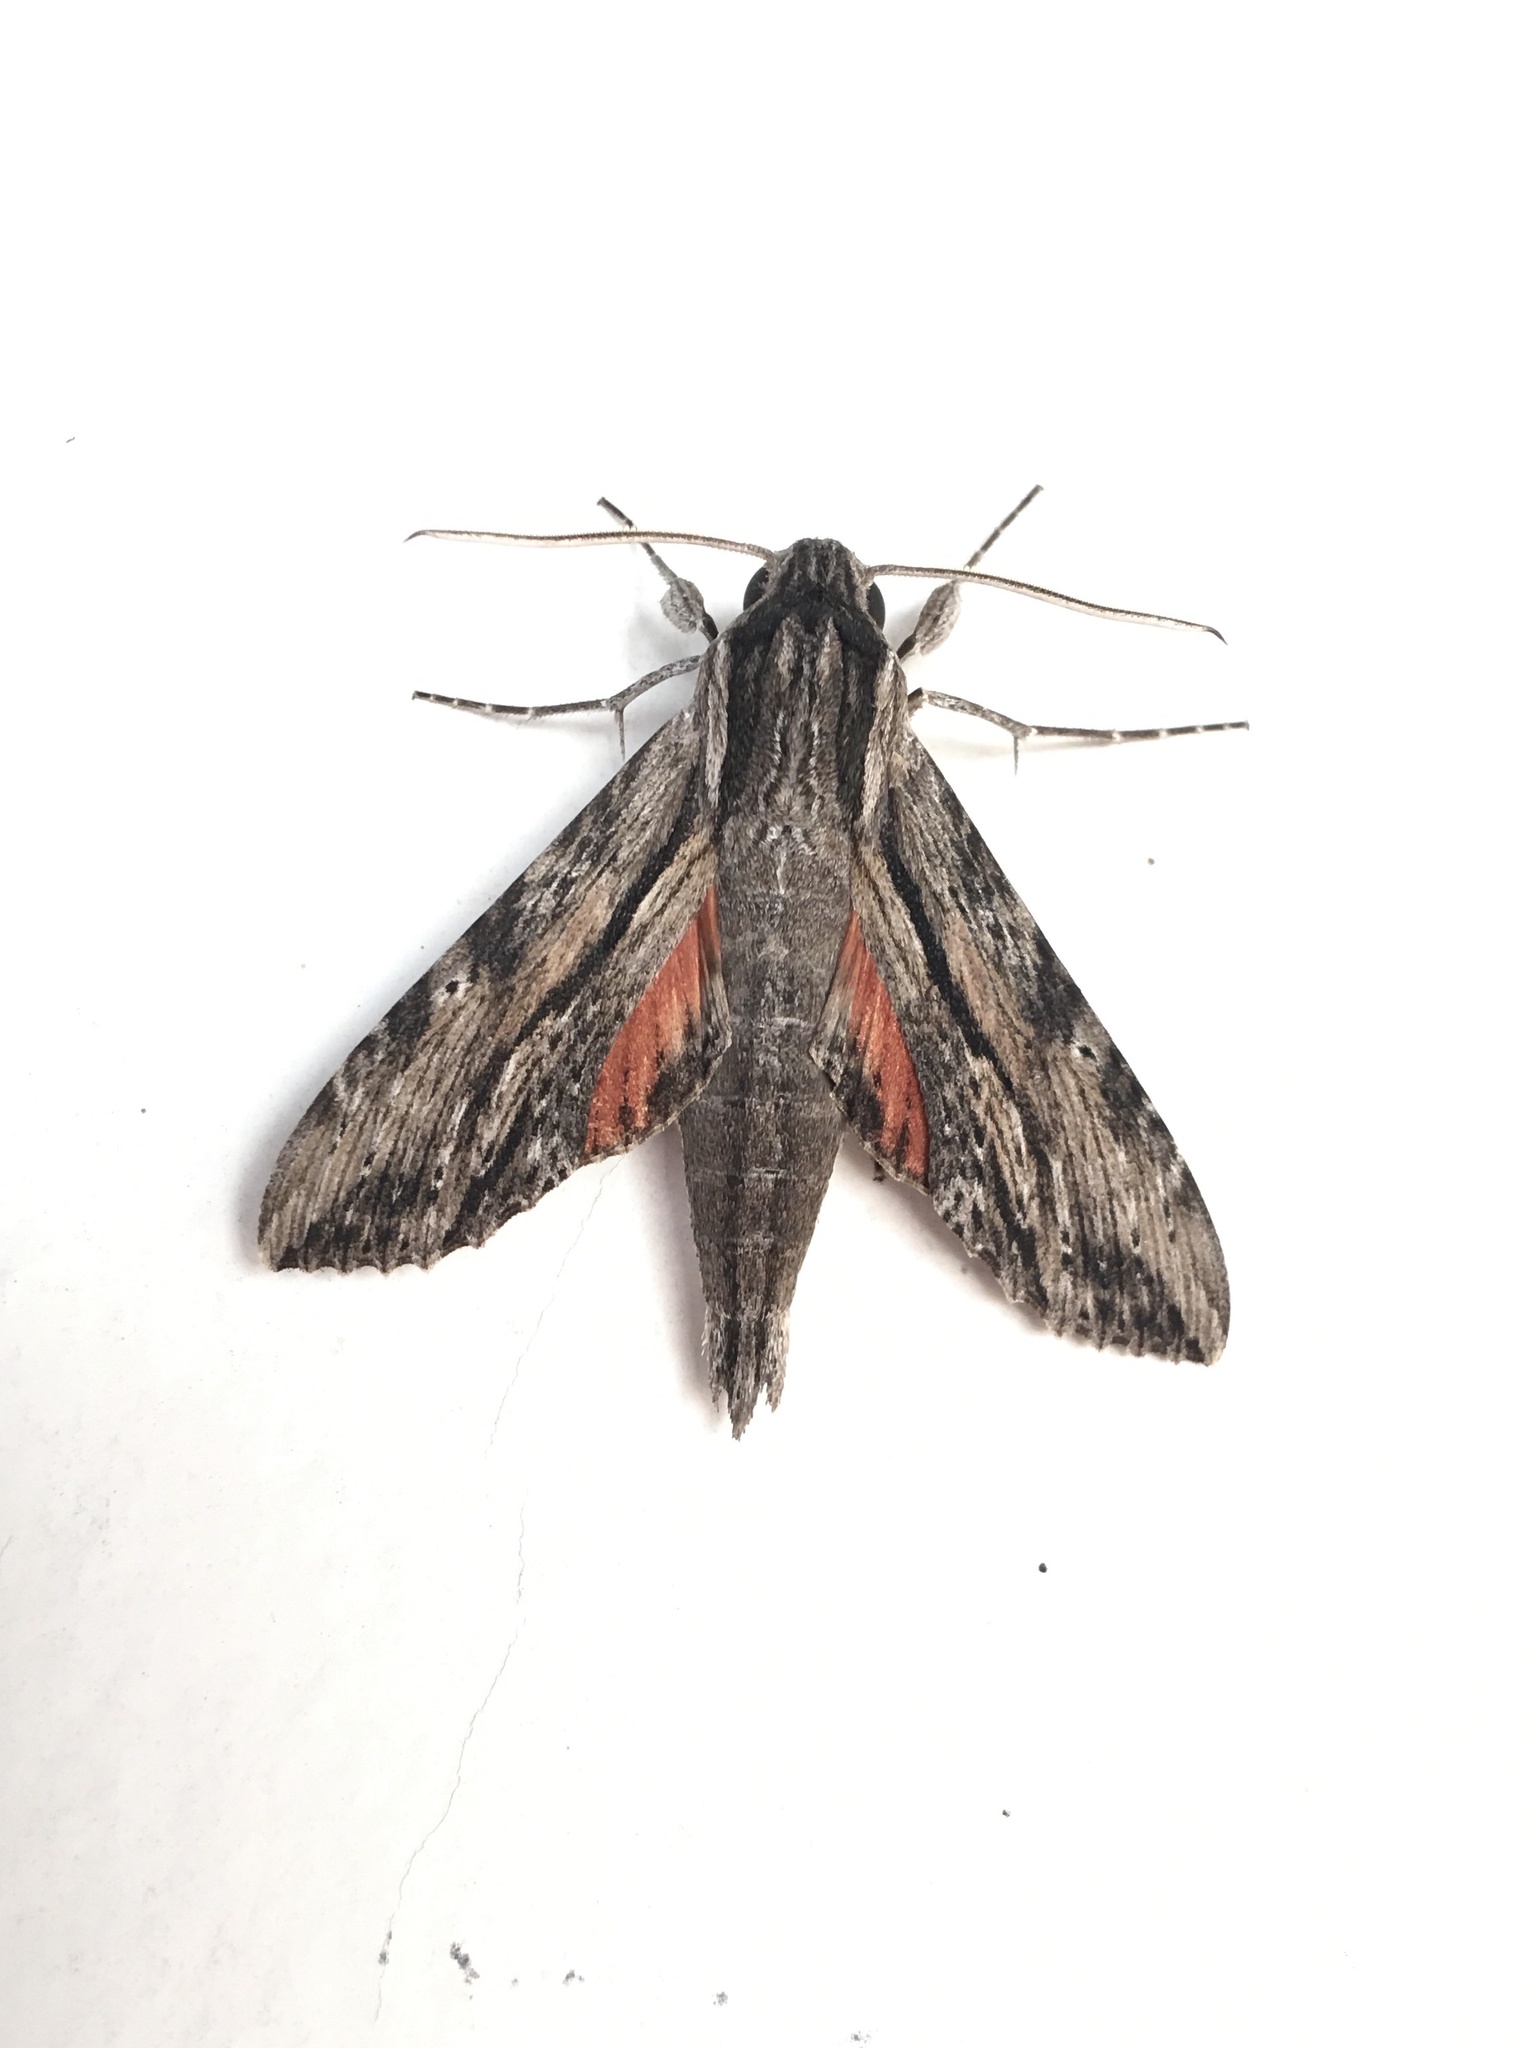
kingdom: Animalia
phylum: Arthropoda
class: Insecta
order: Lepidoptera
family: Sphingidae
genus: Erinnyis
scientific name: Erinnyis obscura
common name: Obscure sphinx
